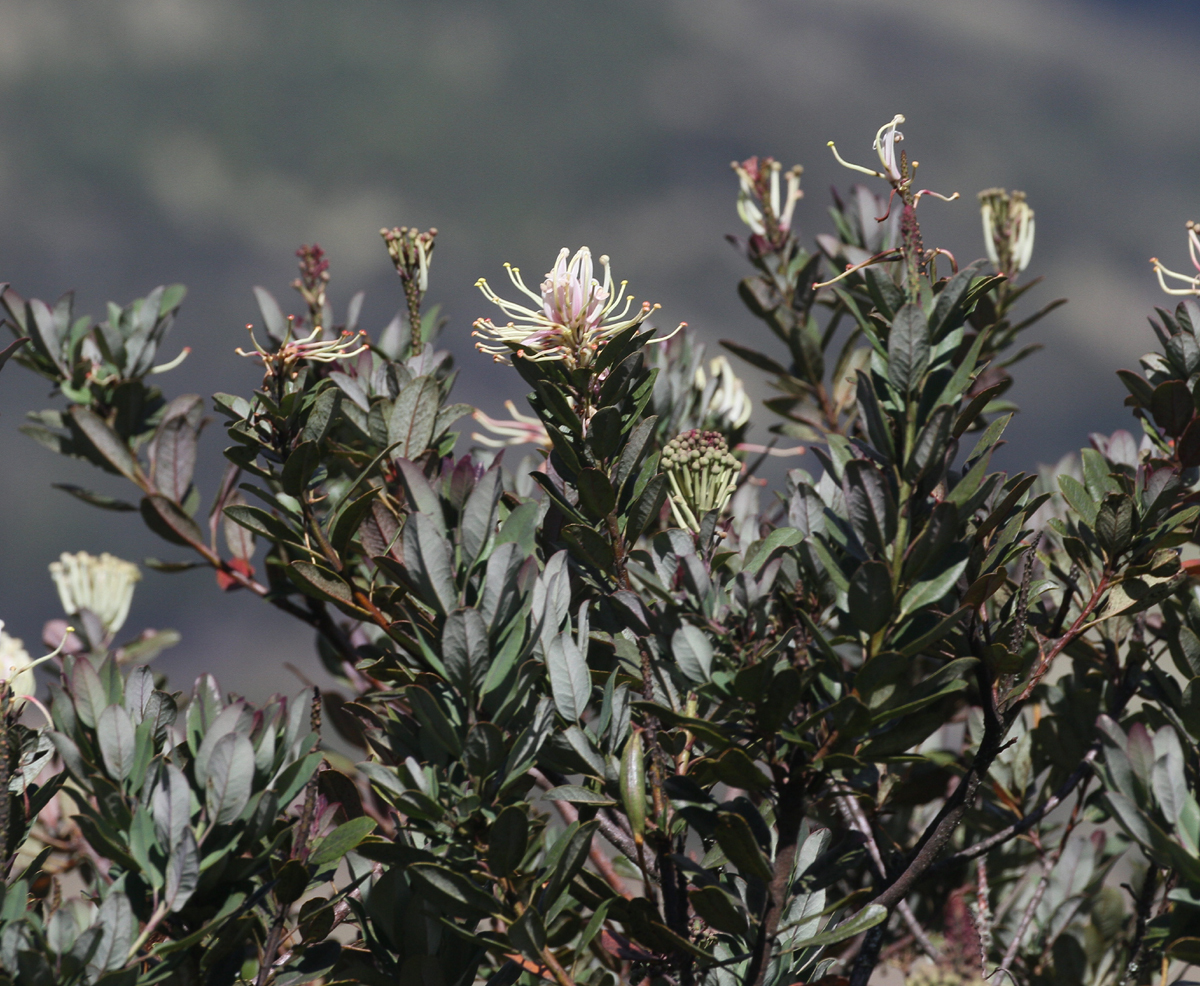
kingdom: Plantae
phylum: Tracheophyta
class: Magnoliopsida
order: Proteales
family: Proteaceae
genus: Oreocallis
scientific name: Oreocallis grandiflora
